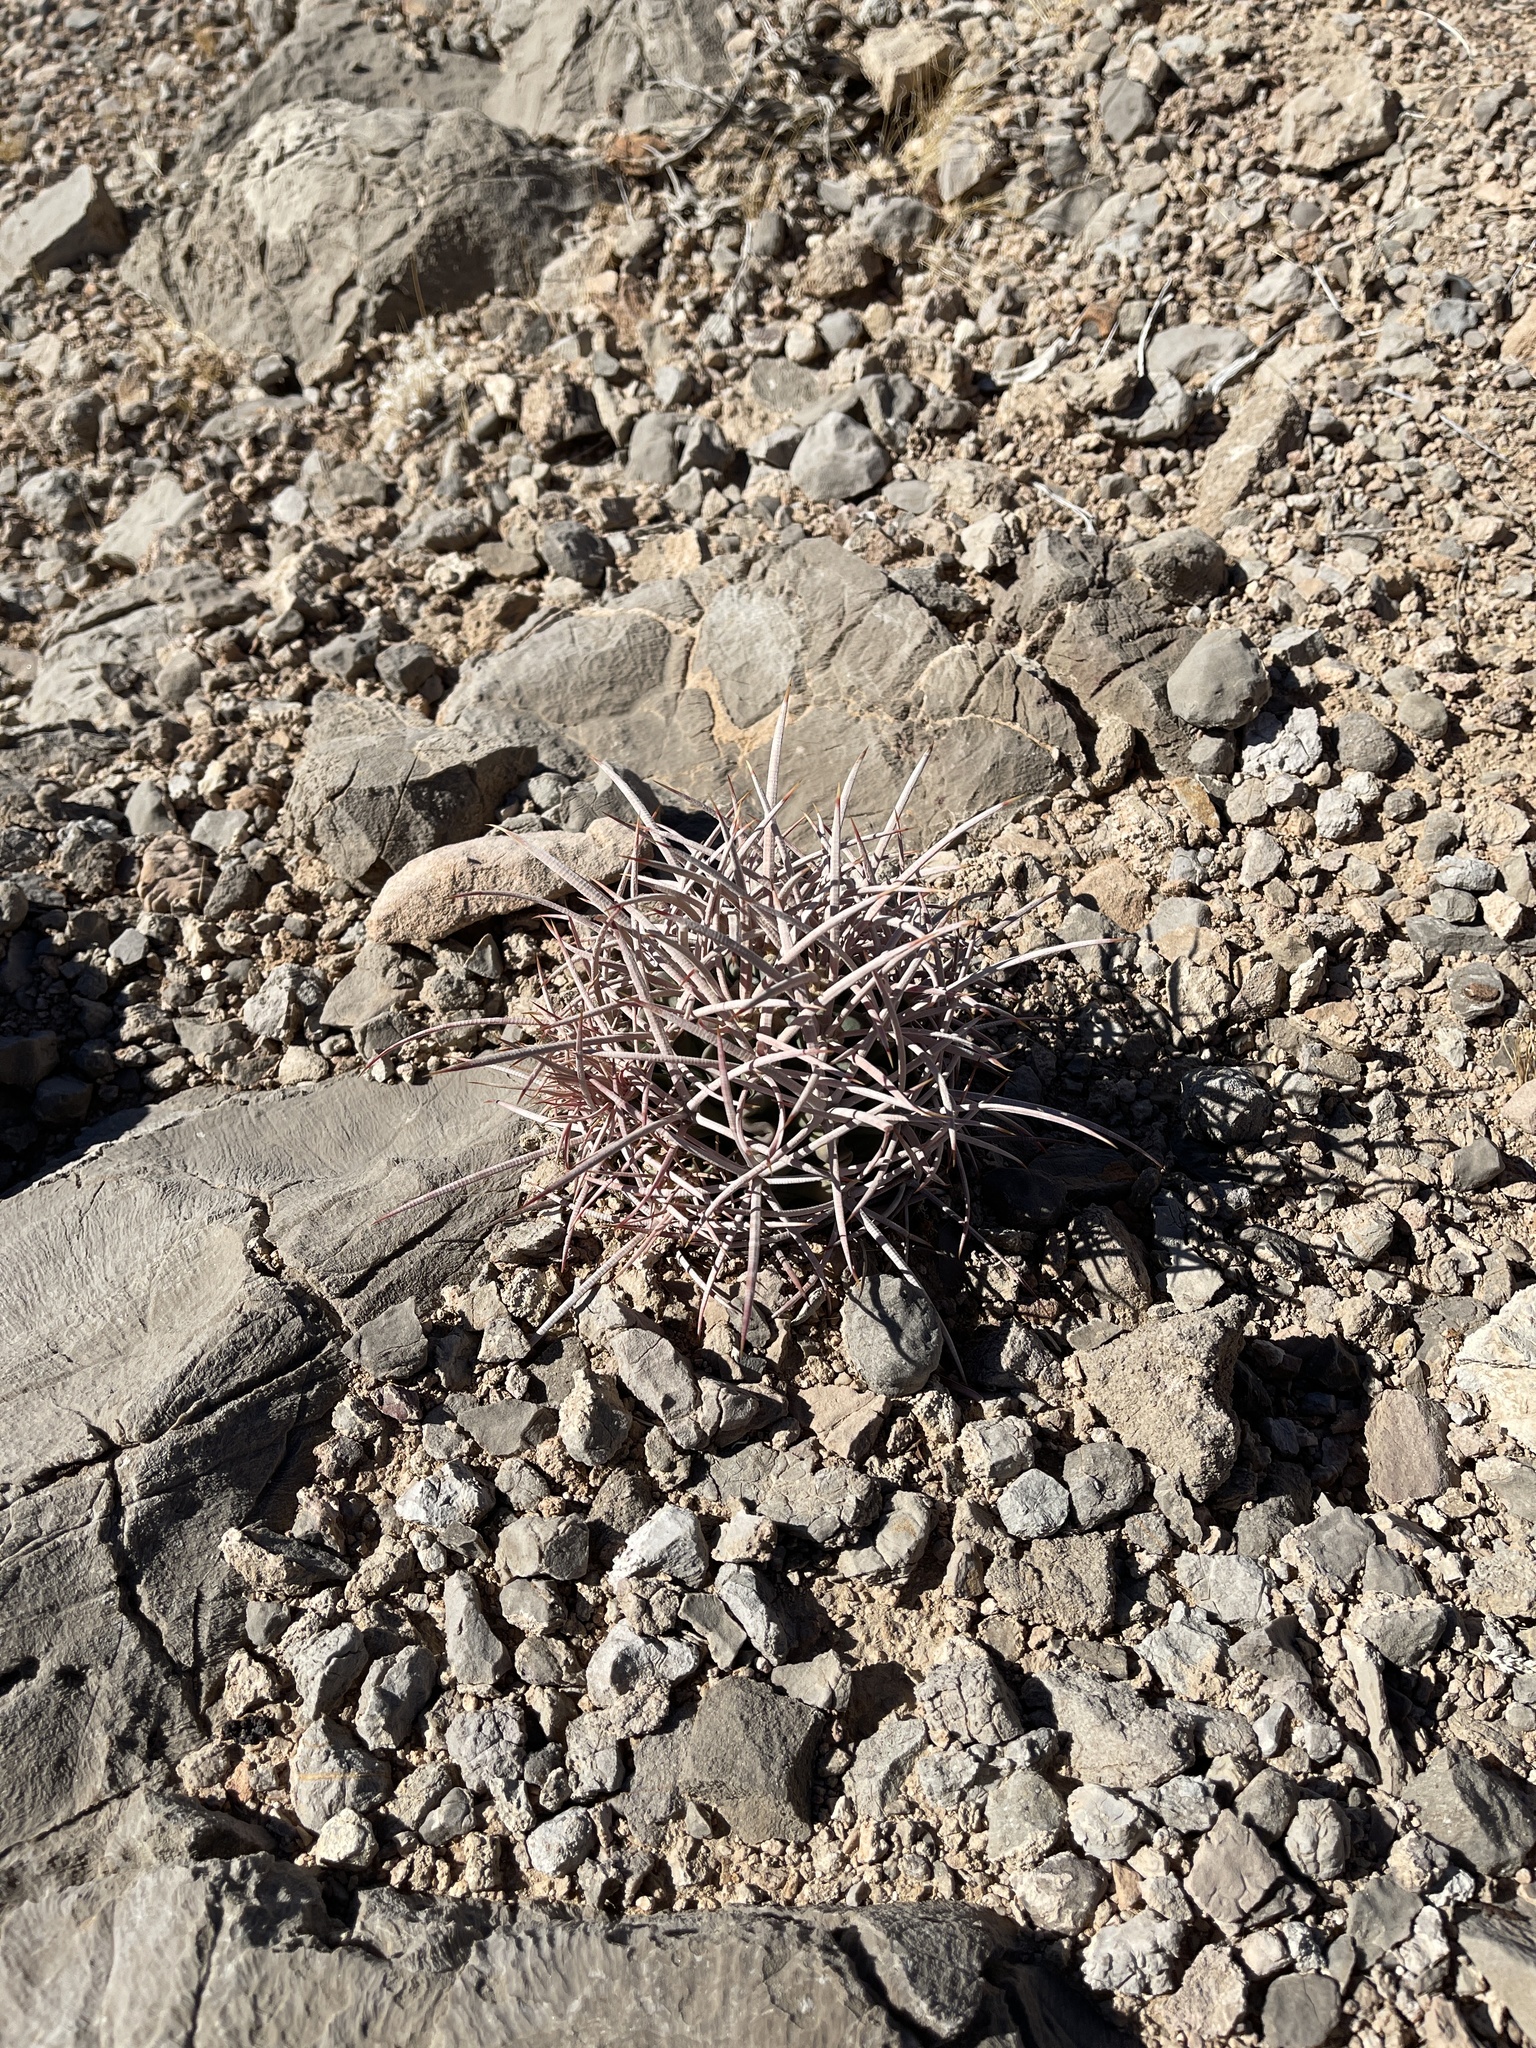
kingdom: Plantae
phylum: Tracheophyta
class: Magnoliopsida
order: Caryophyllales
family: Cactaceae
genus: Echinocactus
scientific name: Echinocactus polycephalus
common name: Cottontop cactus
